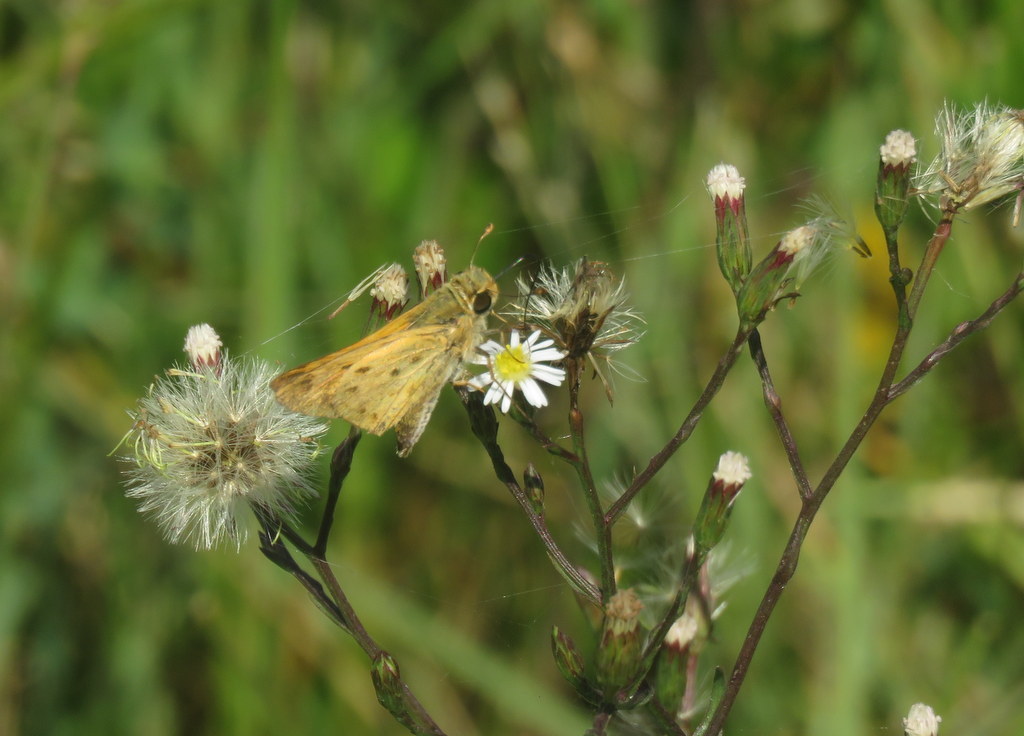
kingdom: Animalia
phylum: Arthropoda
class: Insecta
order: Lepidoptera
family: Hesperiidae
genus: Hylephila
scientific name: Hylephila phyleus
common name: Fiery skipper
